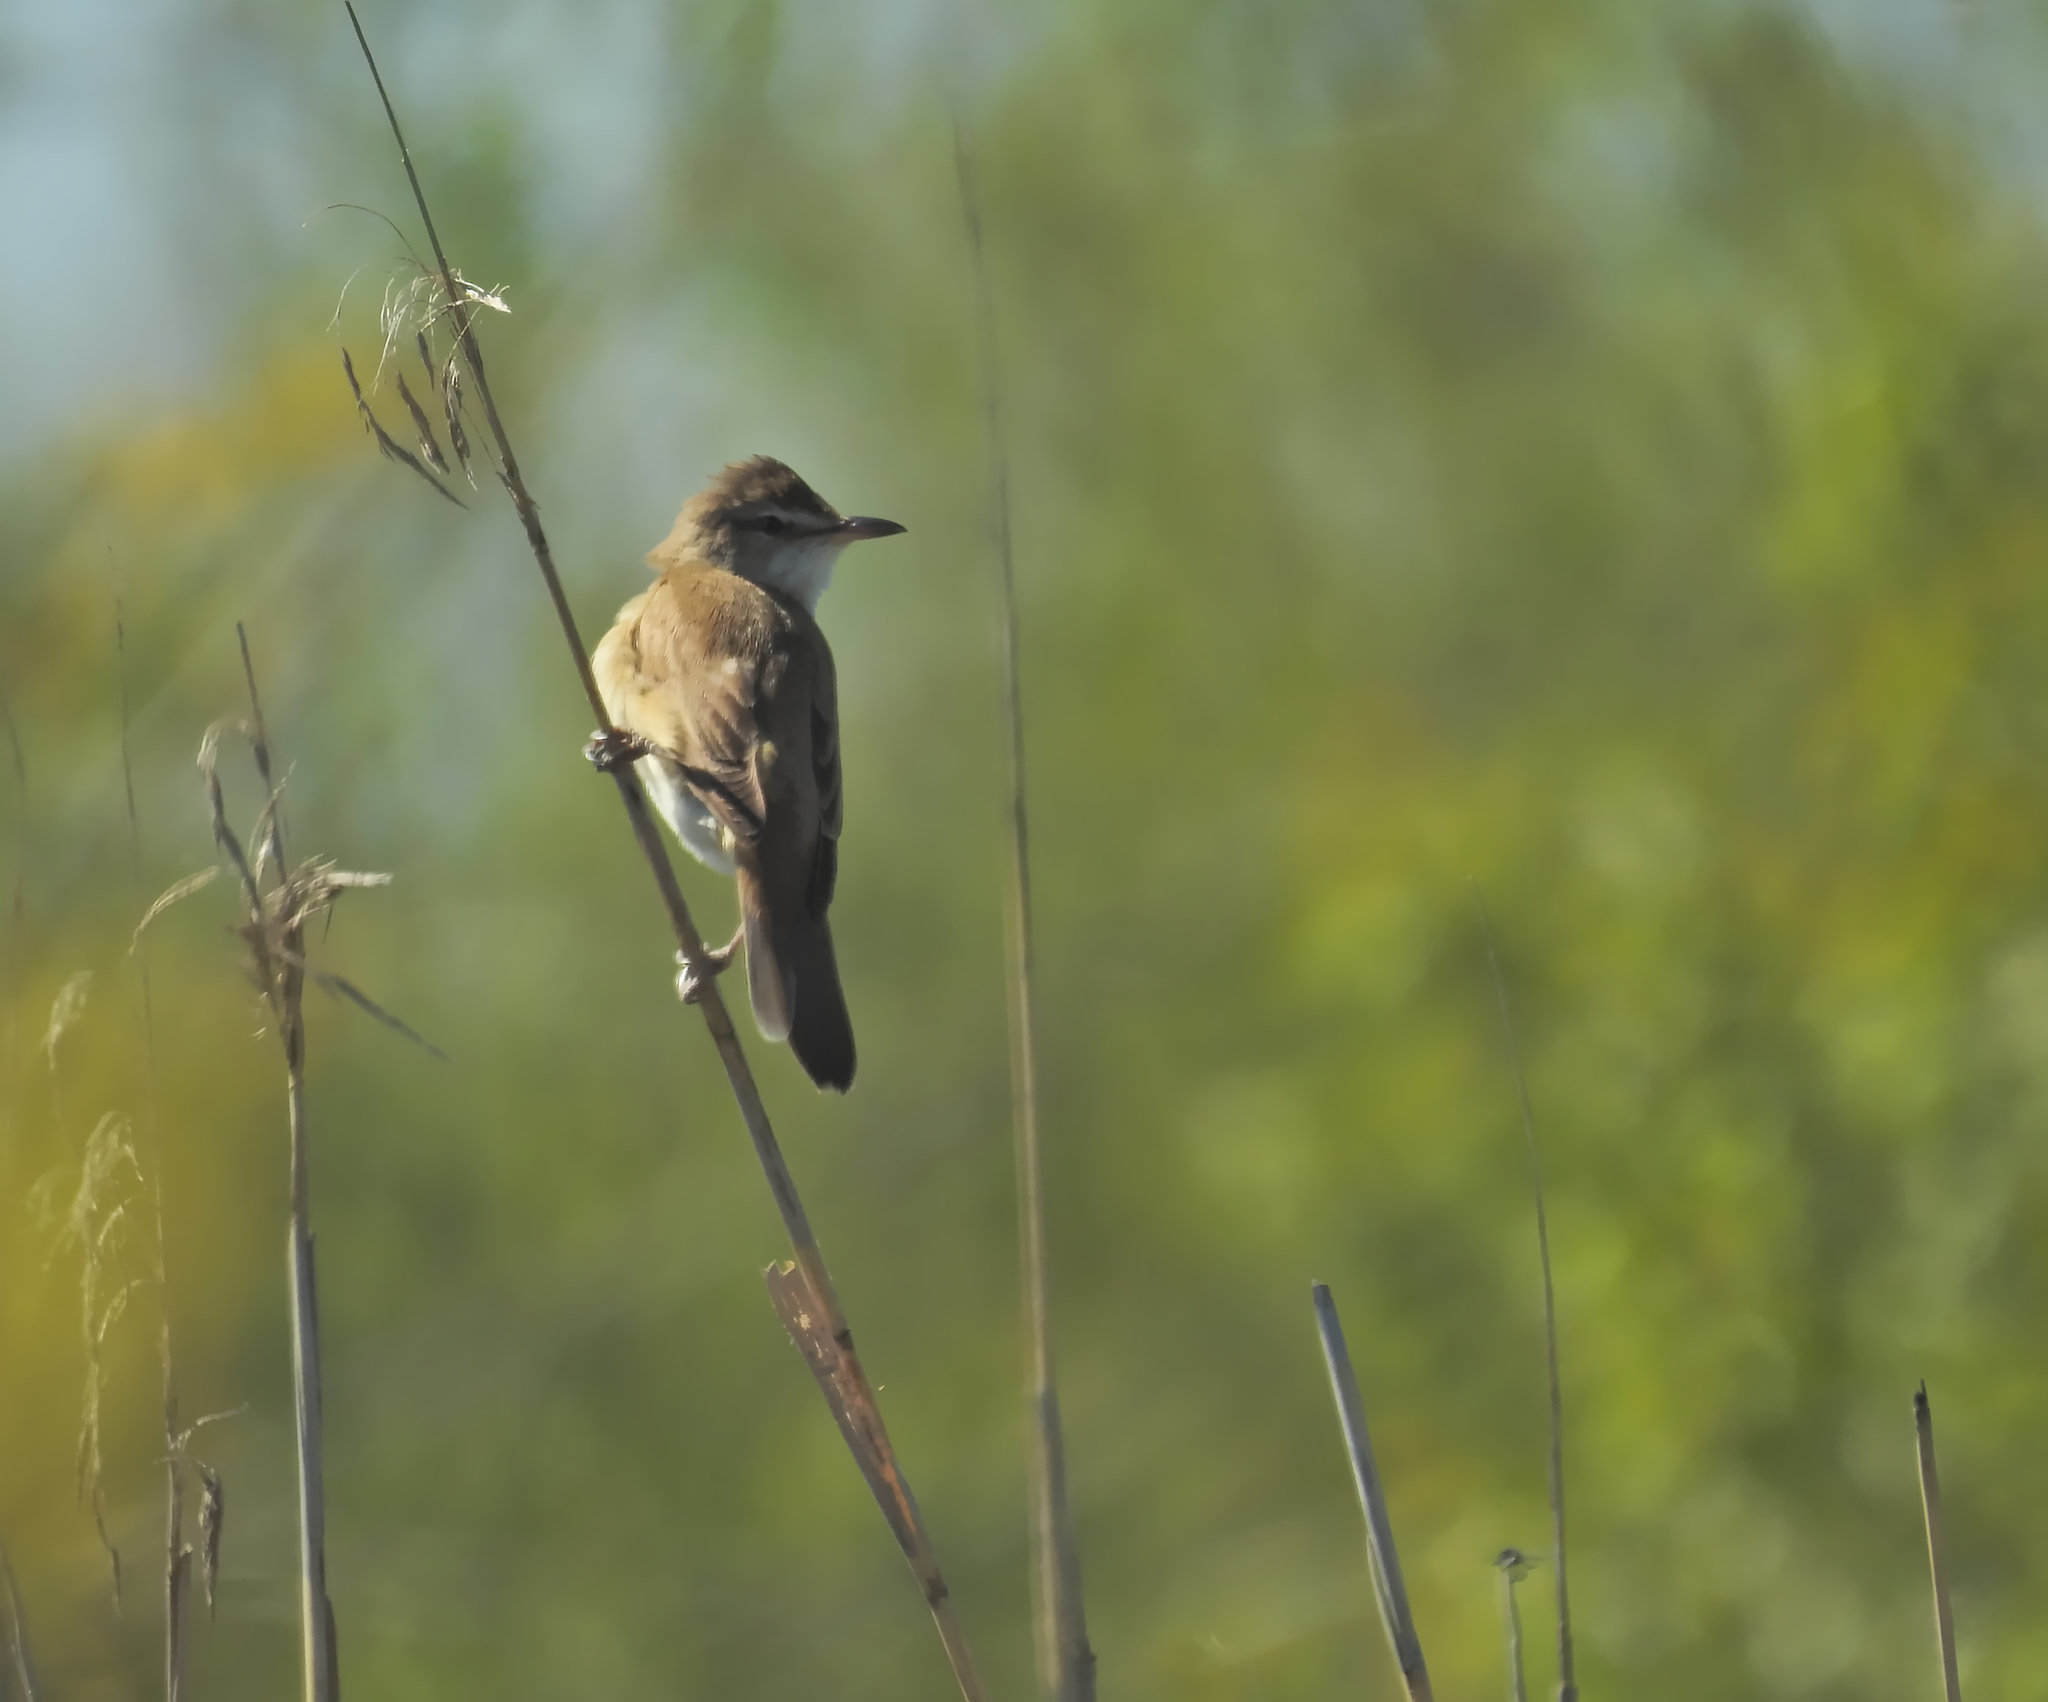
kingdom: Animalia
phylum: Chordata
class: Aves
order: Passeriformes
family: Acrocephalidae
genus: Acrocephalus
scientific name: Acrocephalus arundinaceus
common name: Great reed warbler
